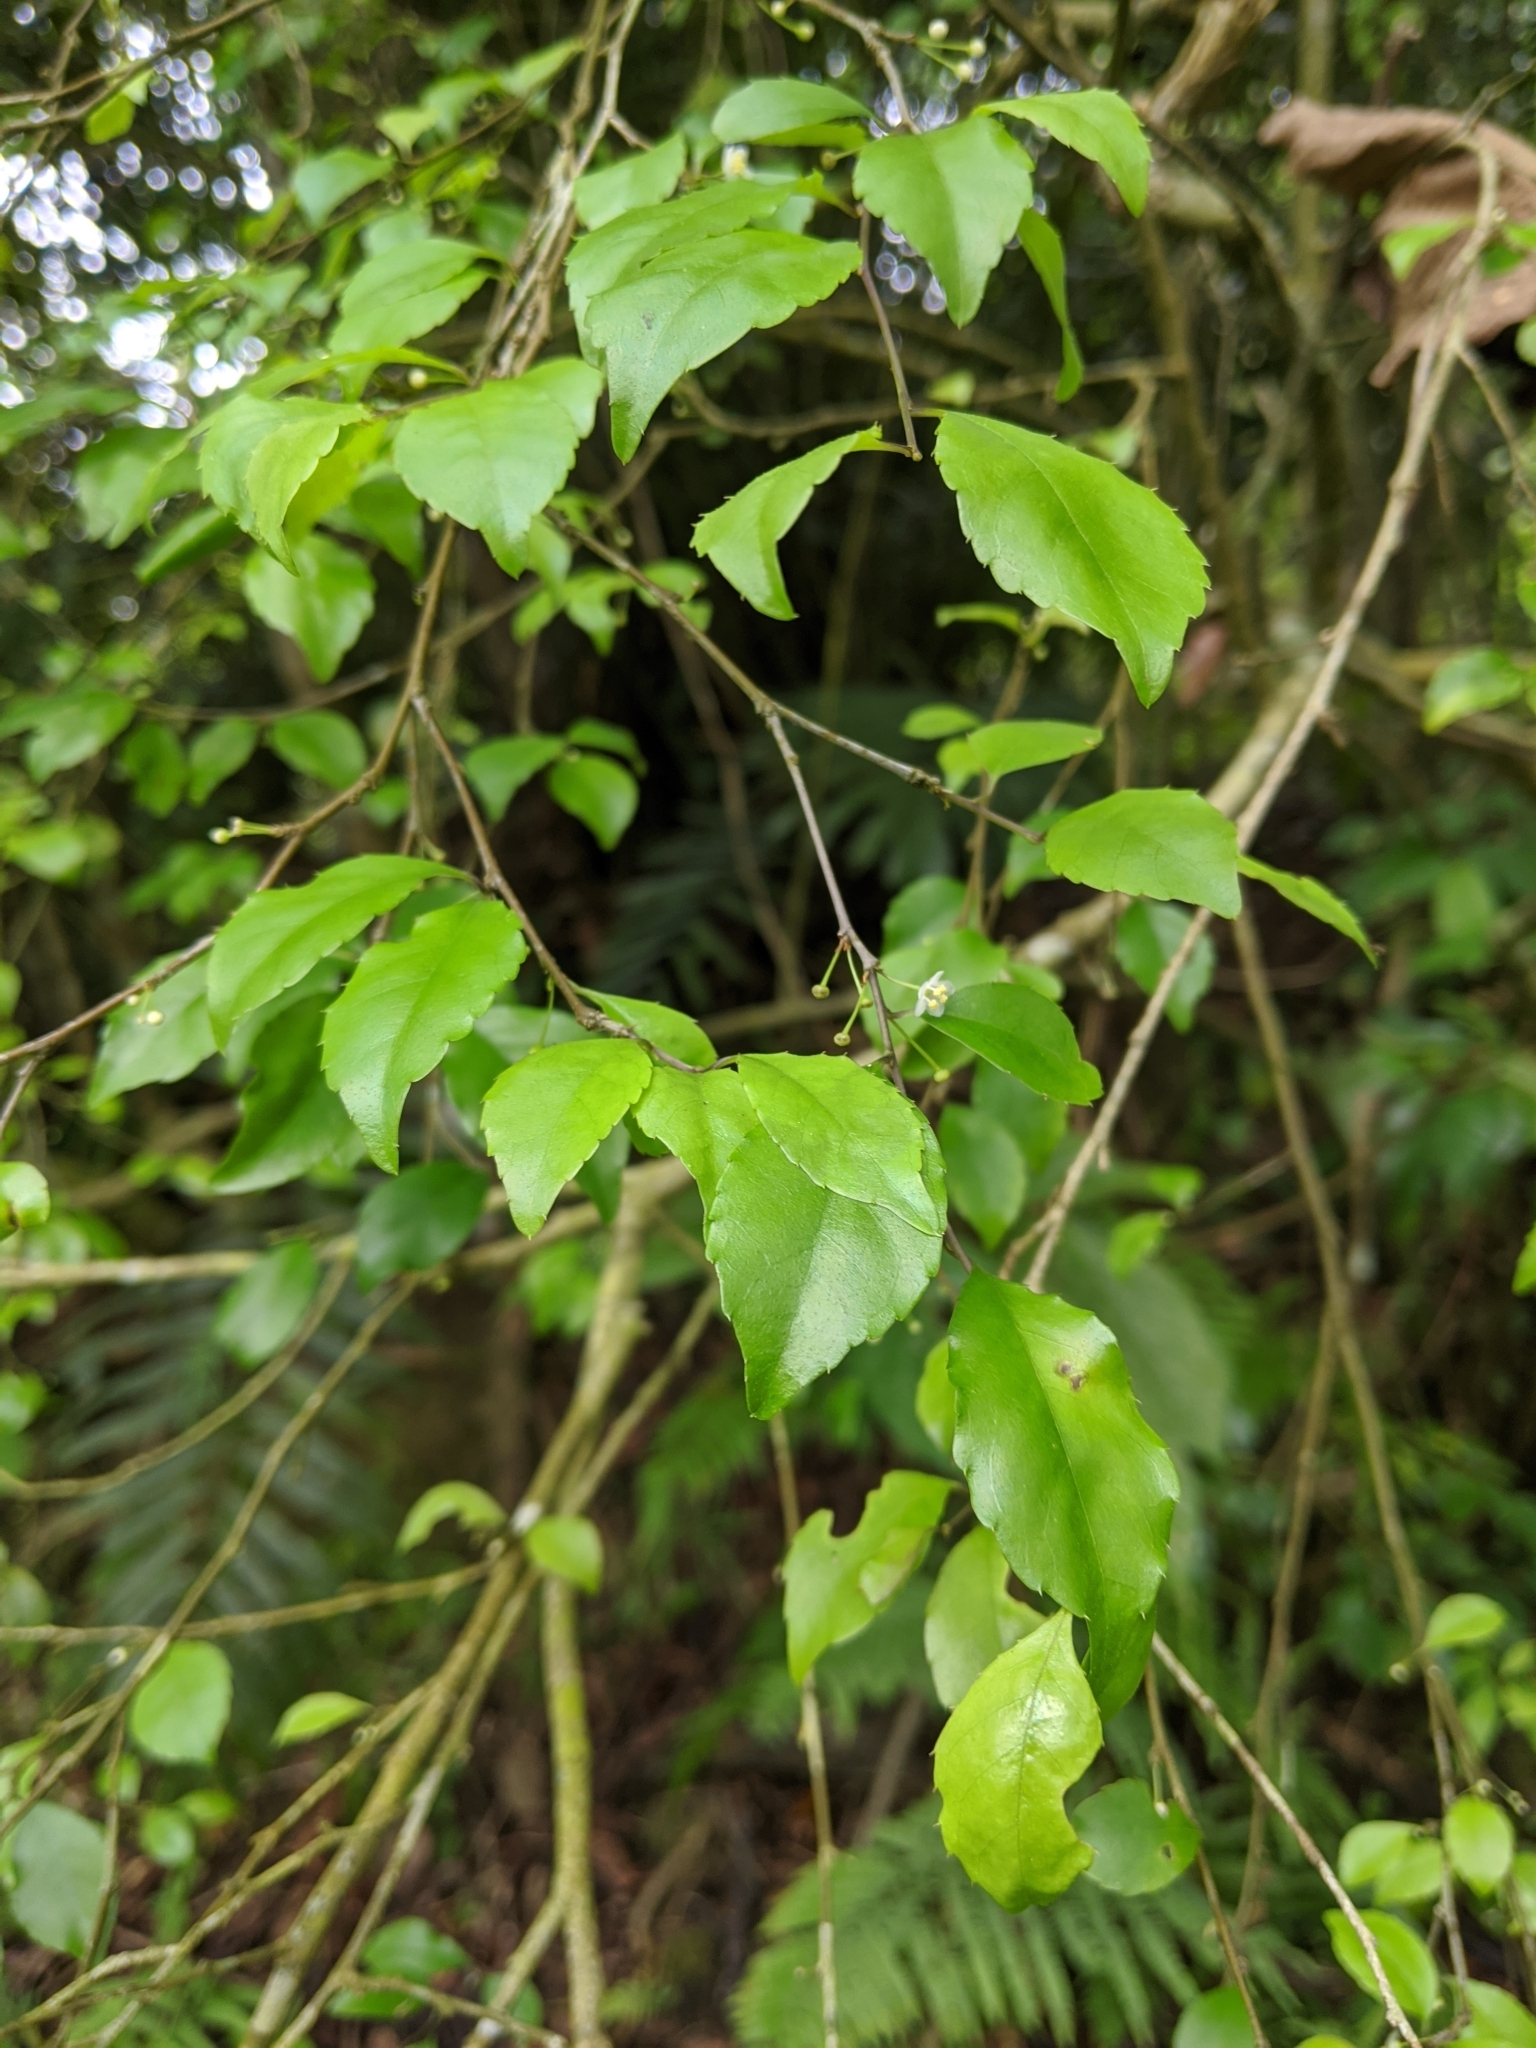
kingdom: Plantae
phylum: Tracheophyta
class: Magnoliopsida
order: Aquifoliales
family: Aquifoliaceae
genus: Ilex
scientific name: Ilex asprella
